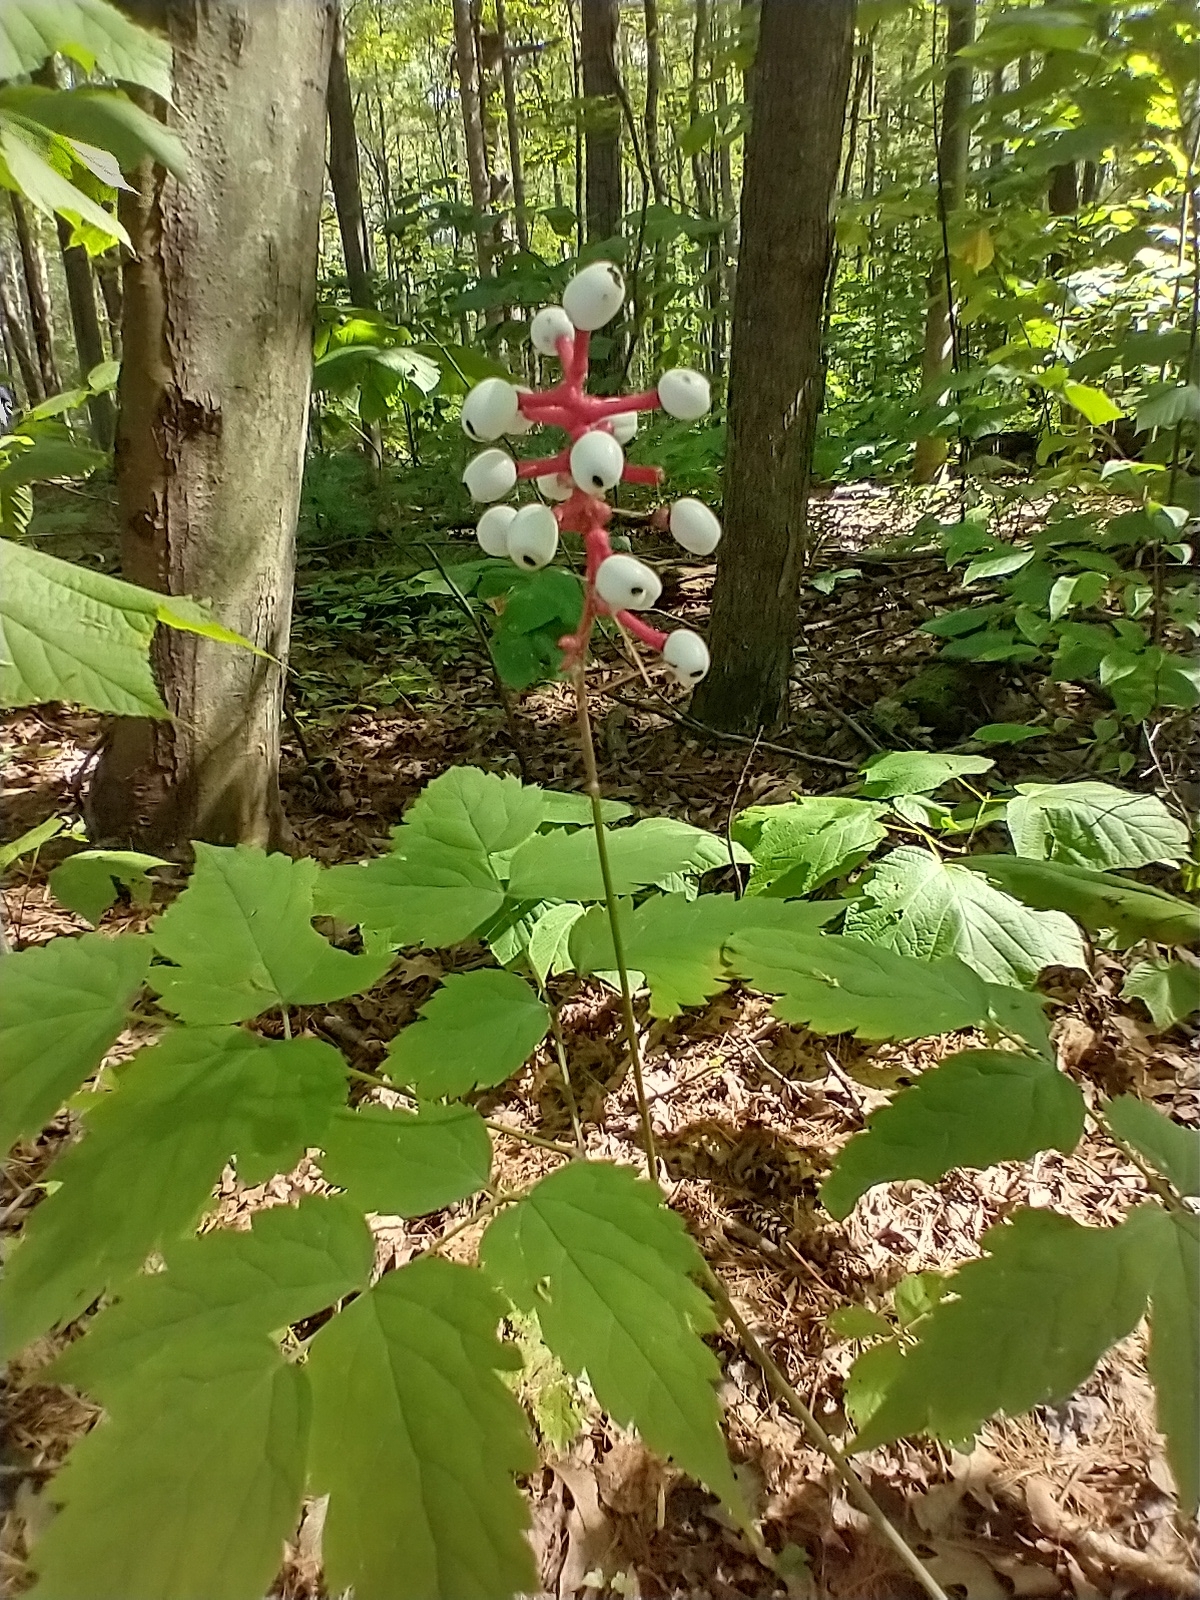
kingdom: Plantae
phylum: Tracheophyta
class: Magnoliopsida
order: Ranunculales
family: Ranunculaceae
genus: Actaea
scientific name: Actaea pachypoda
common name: Doll's-eyes
